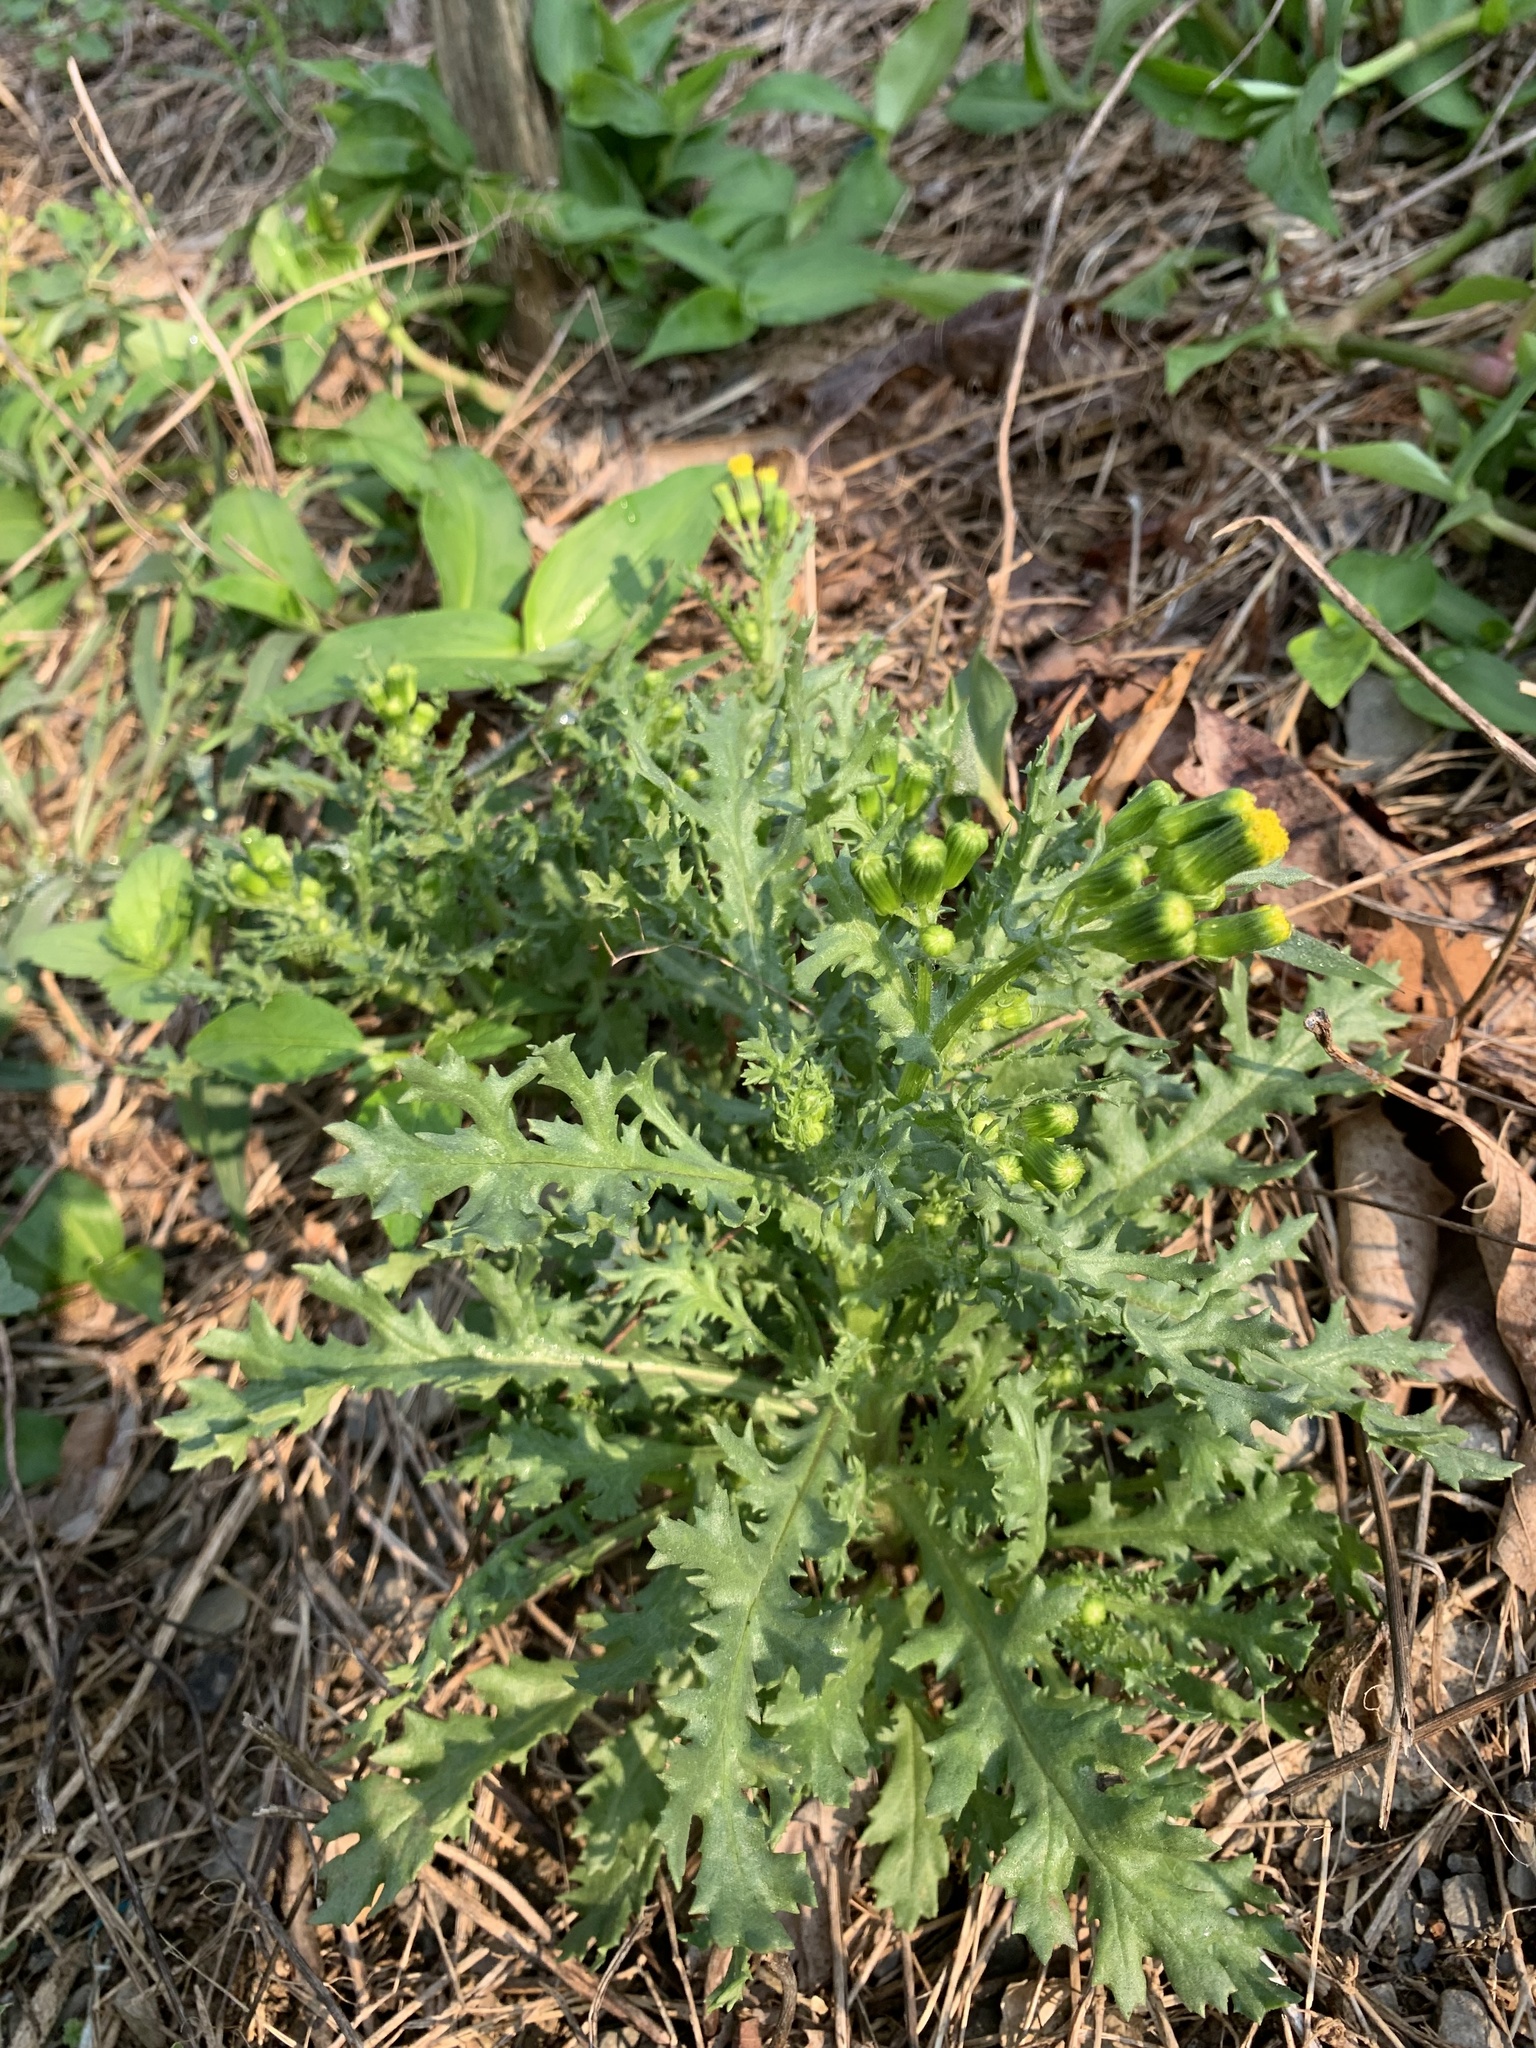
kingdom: Plantae
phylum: Tracheophyta
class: Magnoliopsida
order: Asterales
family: Asteraceae
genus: Senecio
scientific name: Senecio vulgaris
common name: Old-man-in-the-spring
